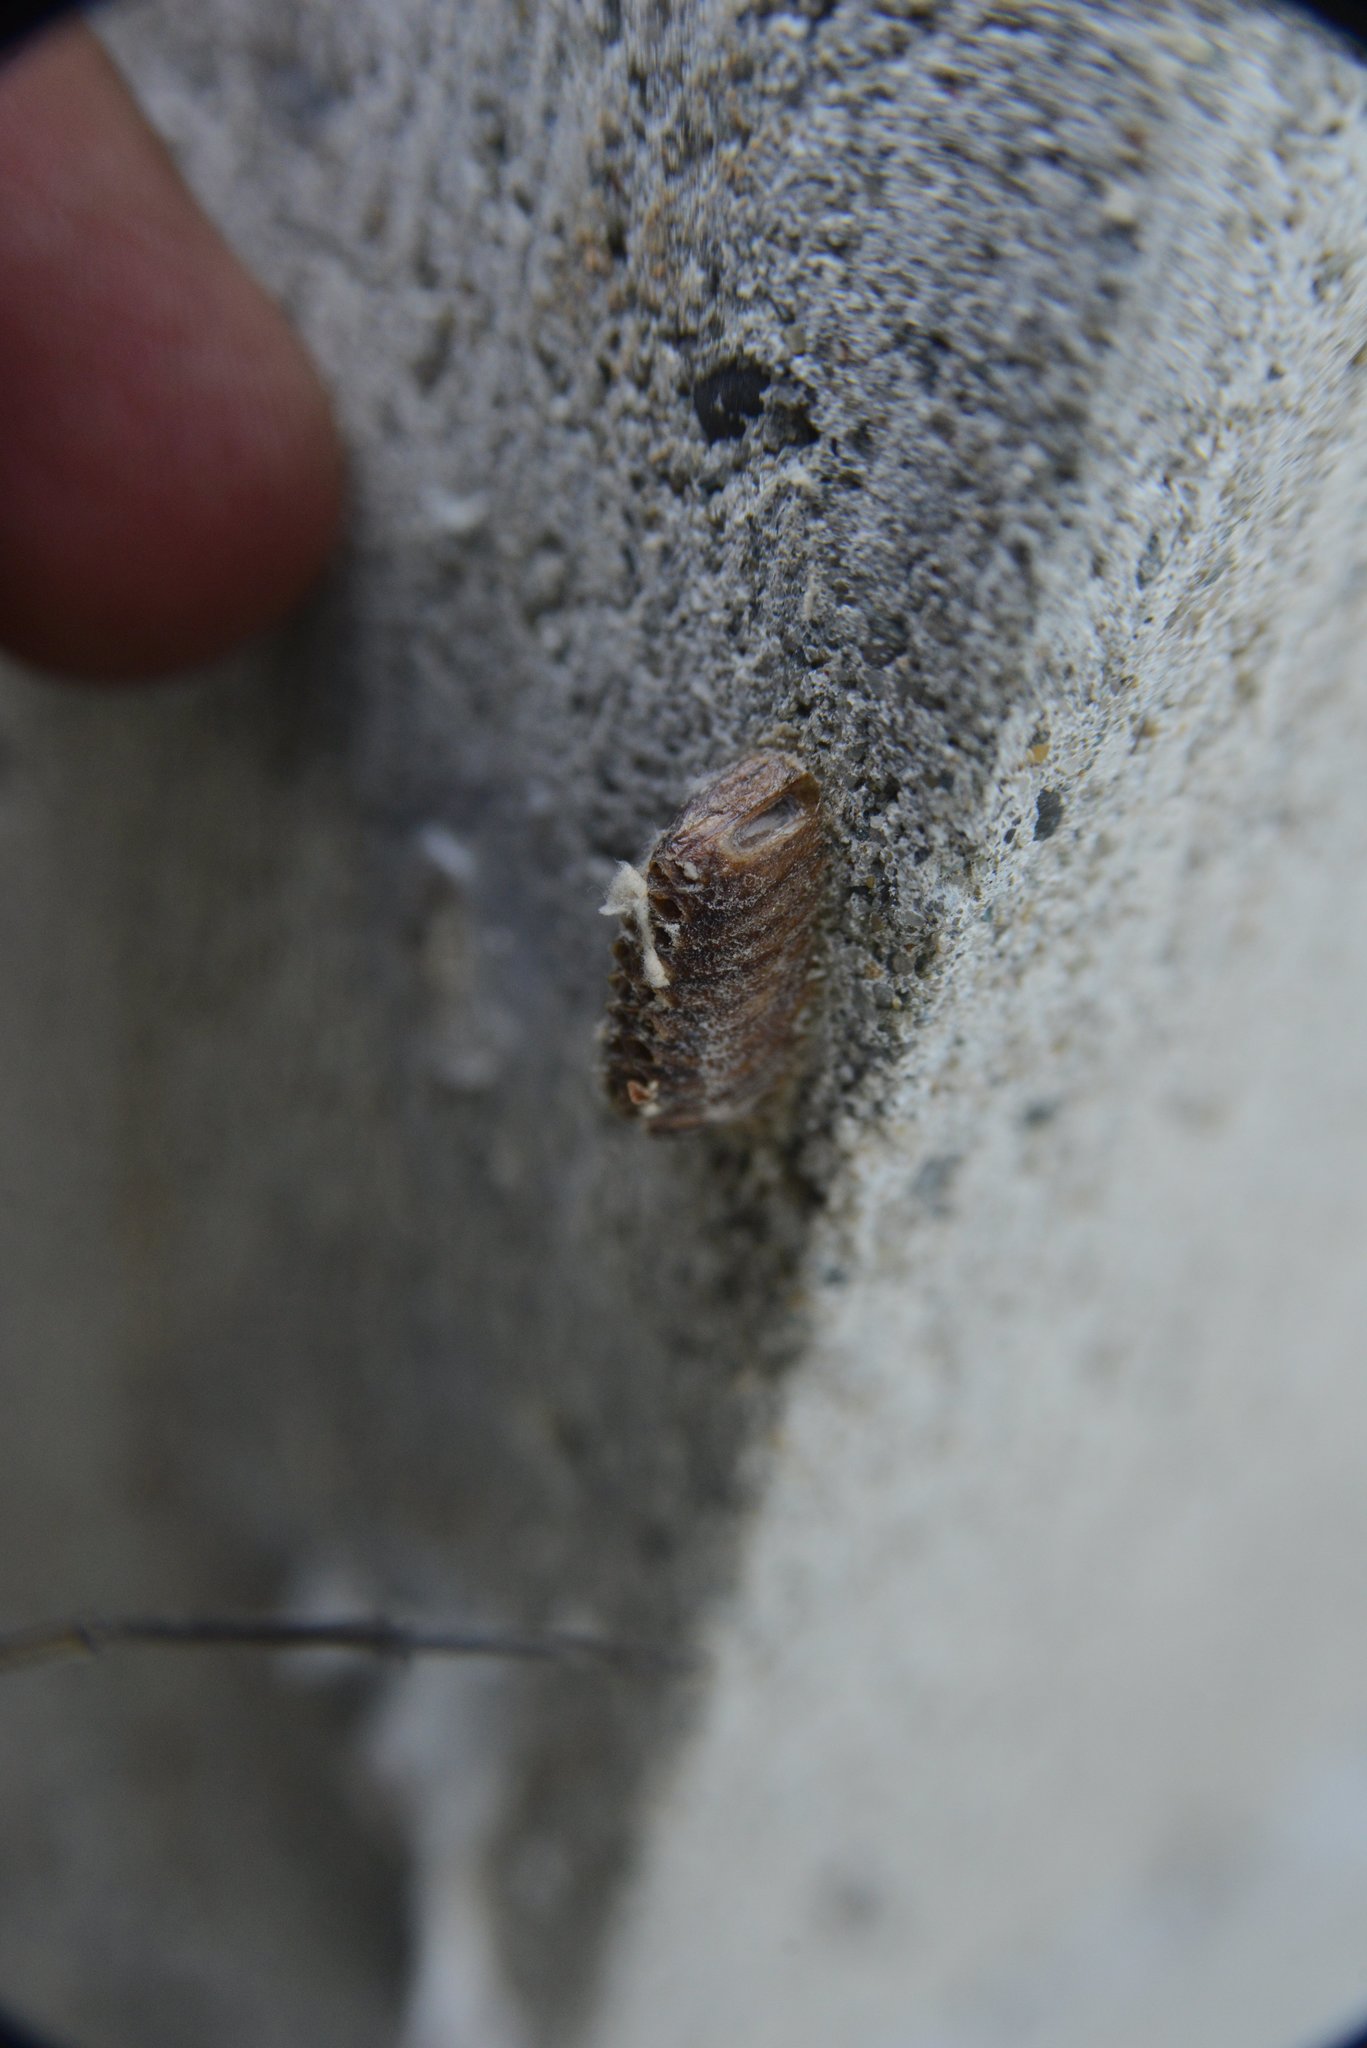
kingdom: Animalia
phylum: Arthropoda
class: Insecta
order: Mantodea
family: Mantidae
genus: Orthodera
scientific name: Orthodera novaezealandiae
